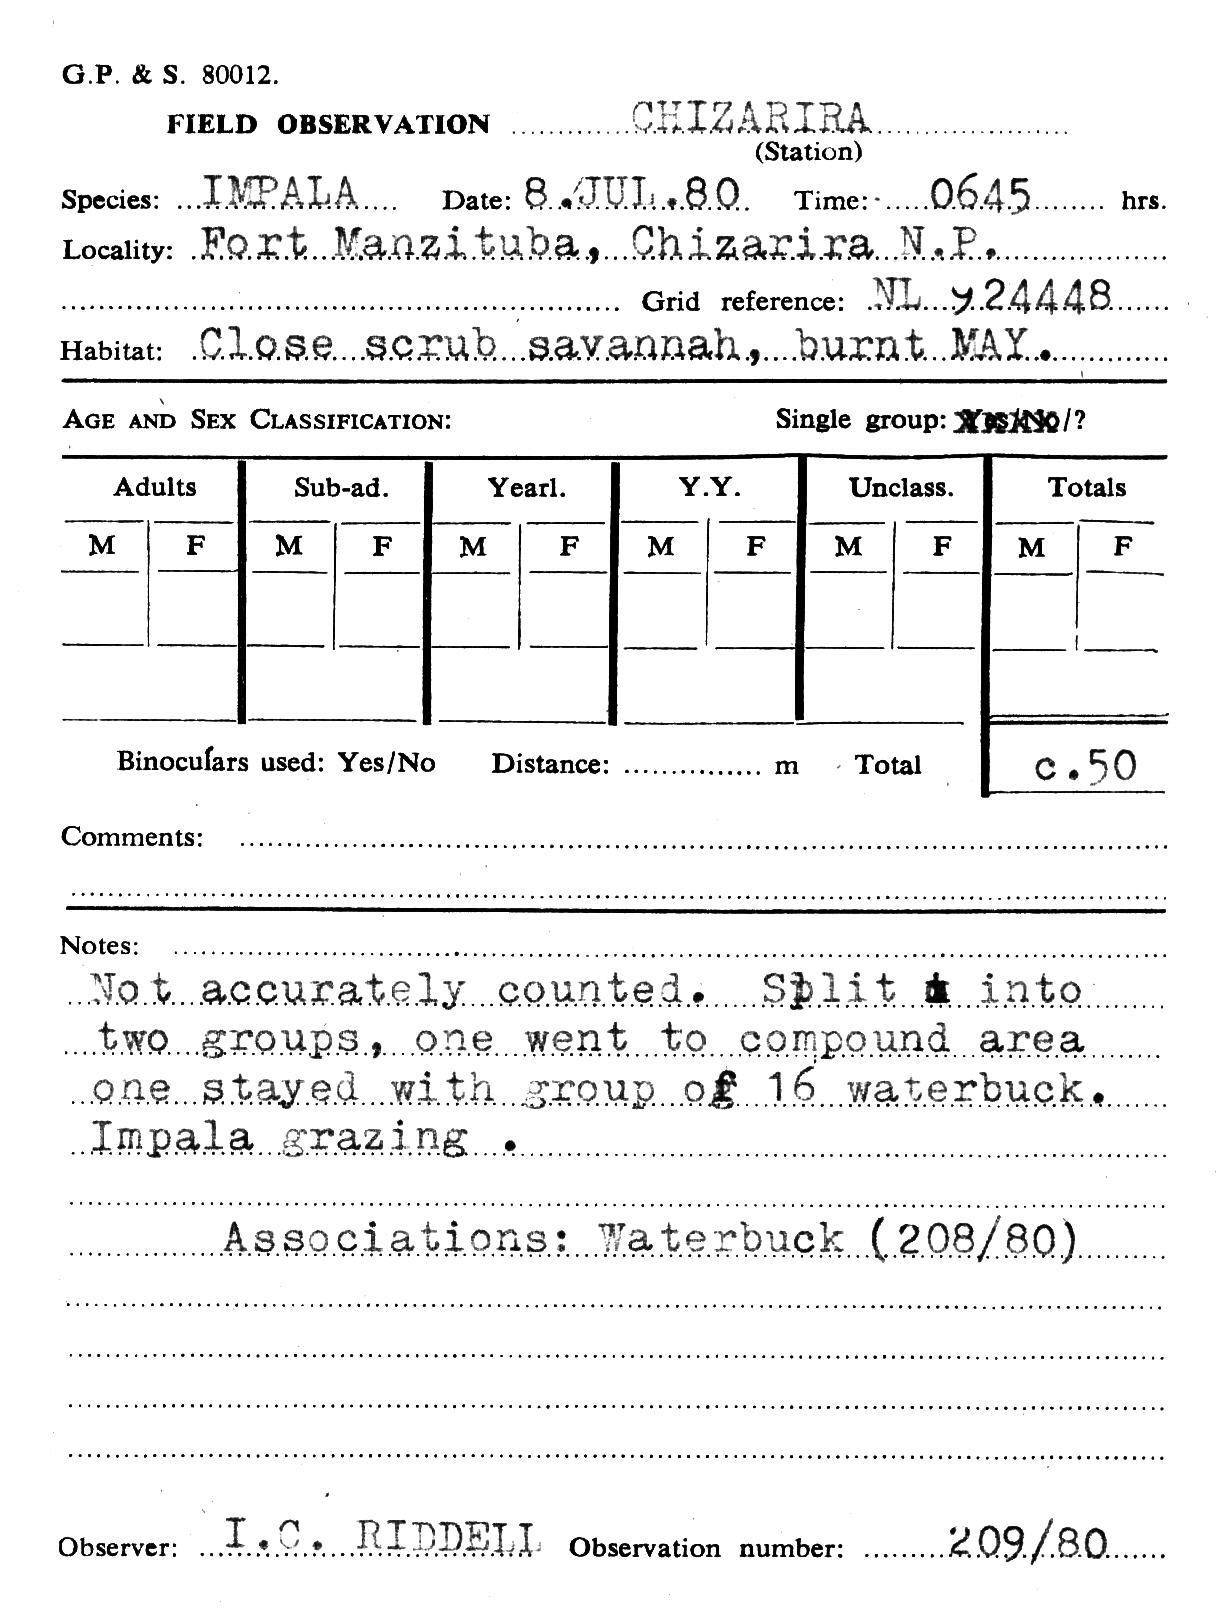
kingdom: Animalia
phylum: Chordata
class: Mammalia
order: Artiodactyla
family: Bovidae
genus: Aepyceros
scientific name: Aepyceros melampus
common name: Impala
